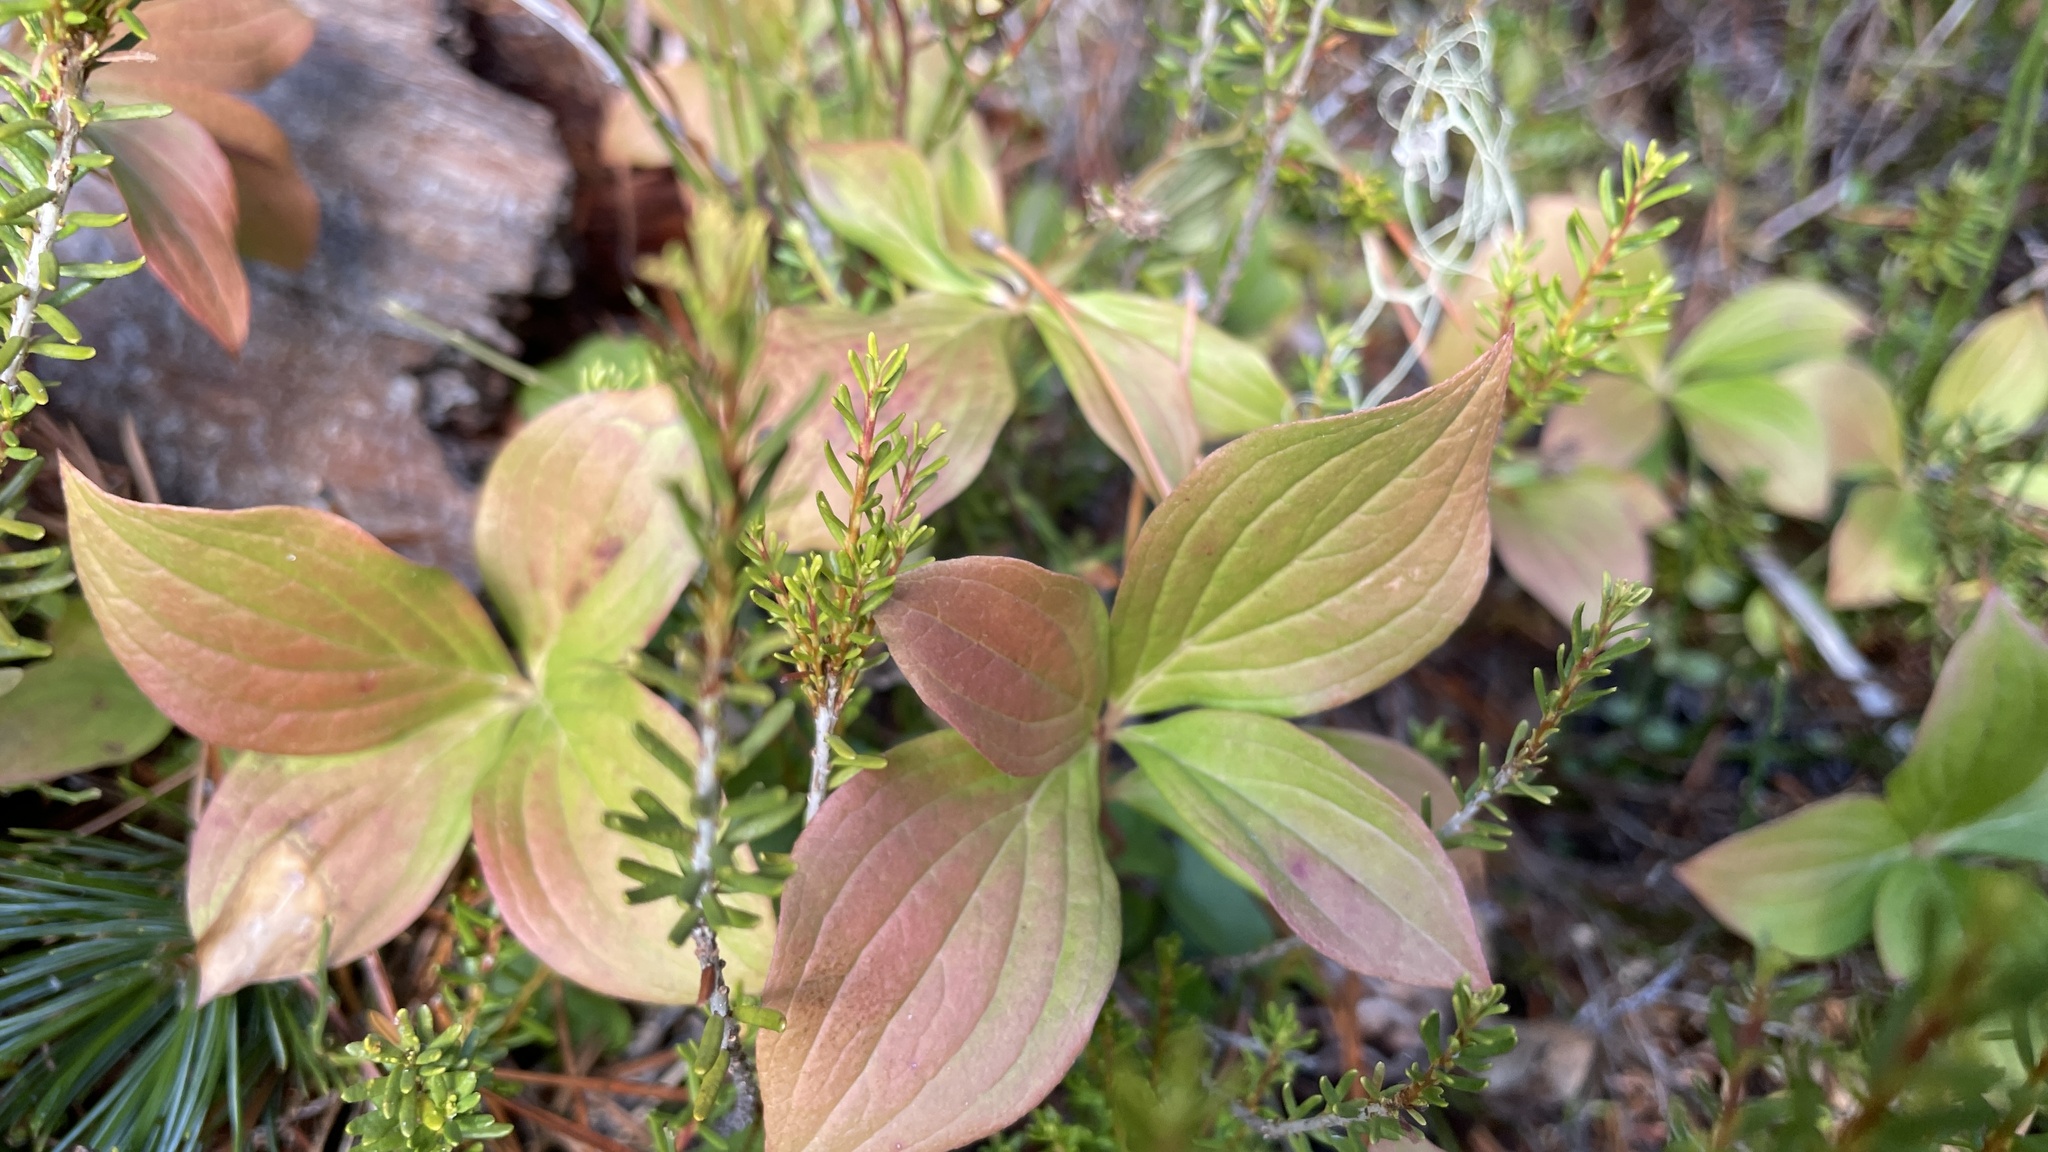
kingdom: Plantae
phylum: Tracheophyta
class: Magnoliopsida
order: Cornales
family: Cornaceae
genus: Cornus
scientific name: Cornus unalaschkensis
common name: Alaska bunchberry
